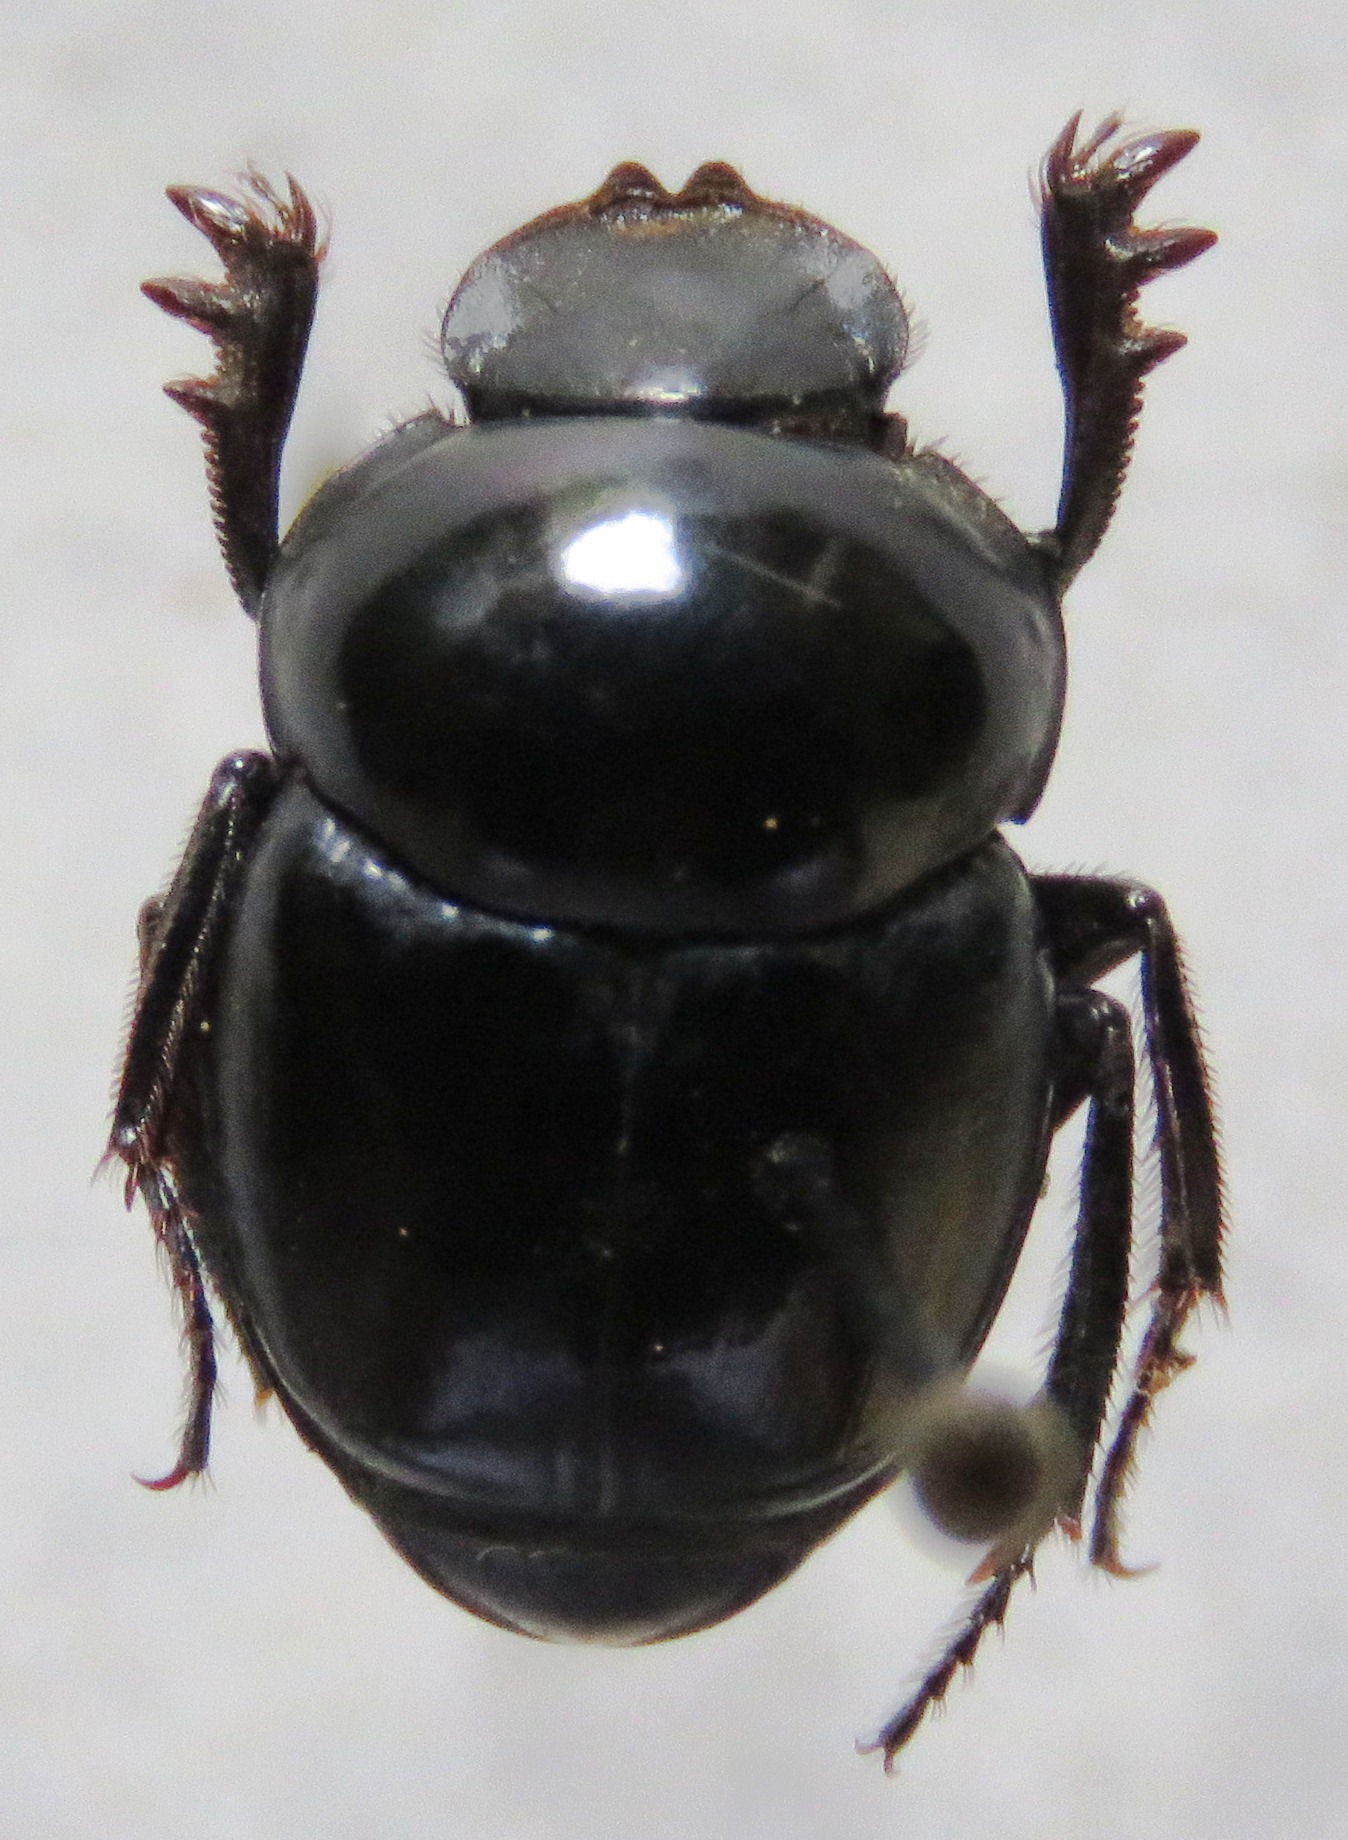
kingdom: Animalia
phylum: Arthropoda
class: Insecta
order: Coleoptera
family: Scarabaeidae
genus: Canthon
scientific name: Canthon indigaceus
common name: Tumblebug
